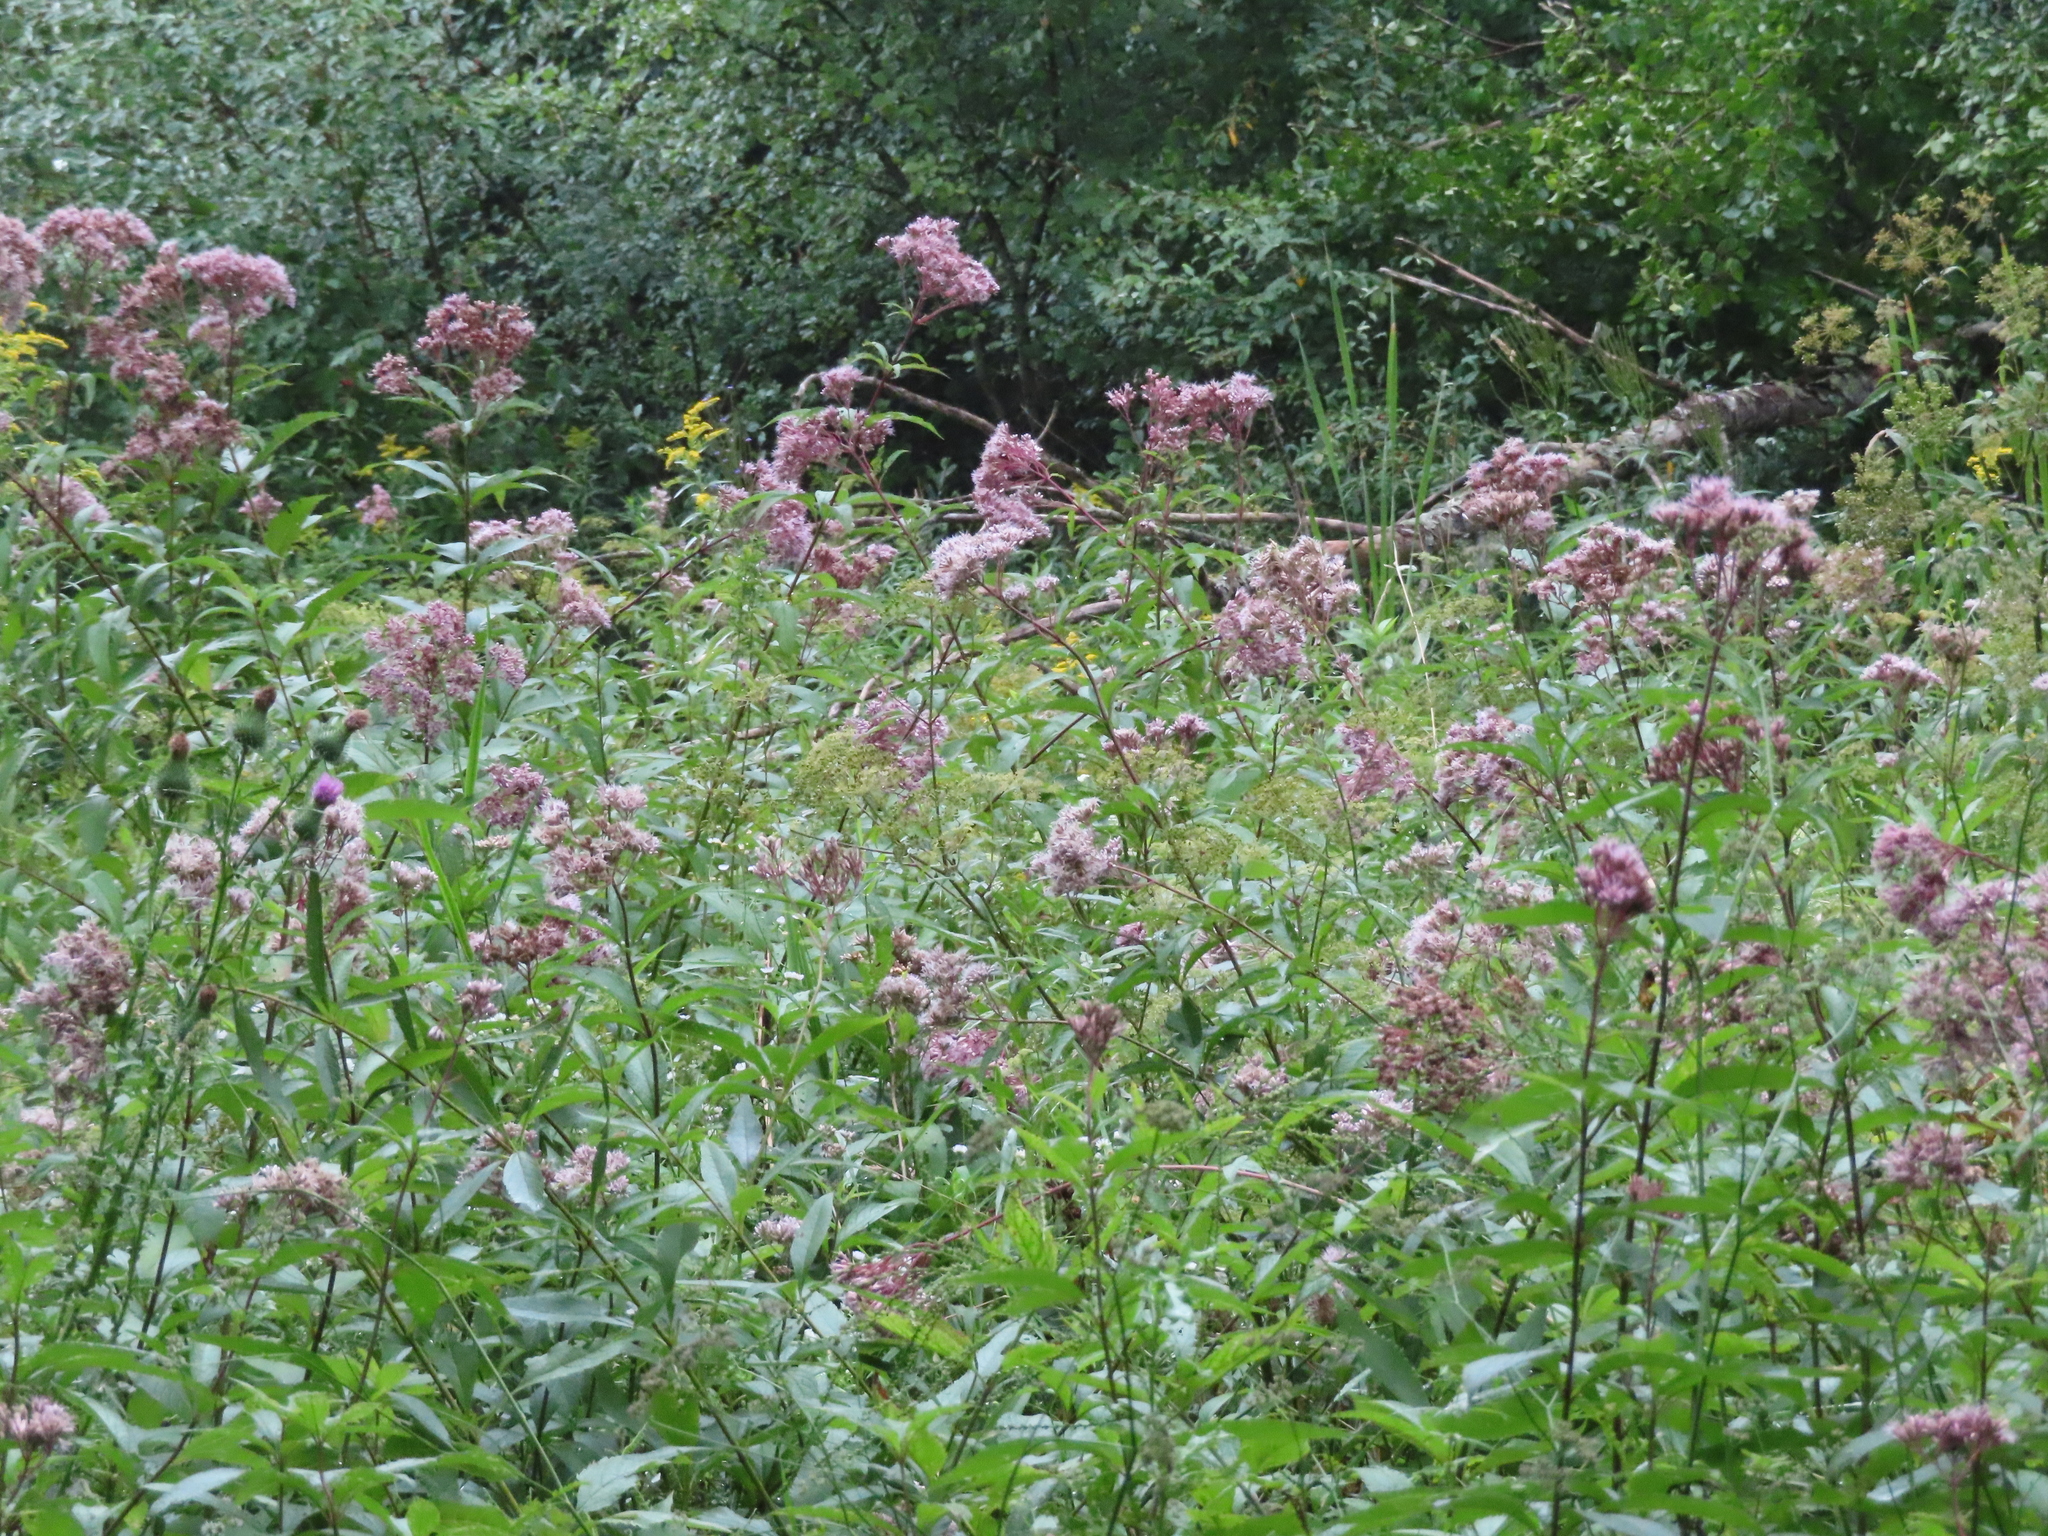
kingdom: Plantae
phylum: Tracheophyta
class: Magnoliopsida
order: Asterales
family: Asteraceae
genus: Eutrochium
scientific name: Eutrochium maculatum
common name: Spotted joe pye weed
